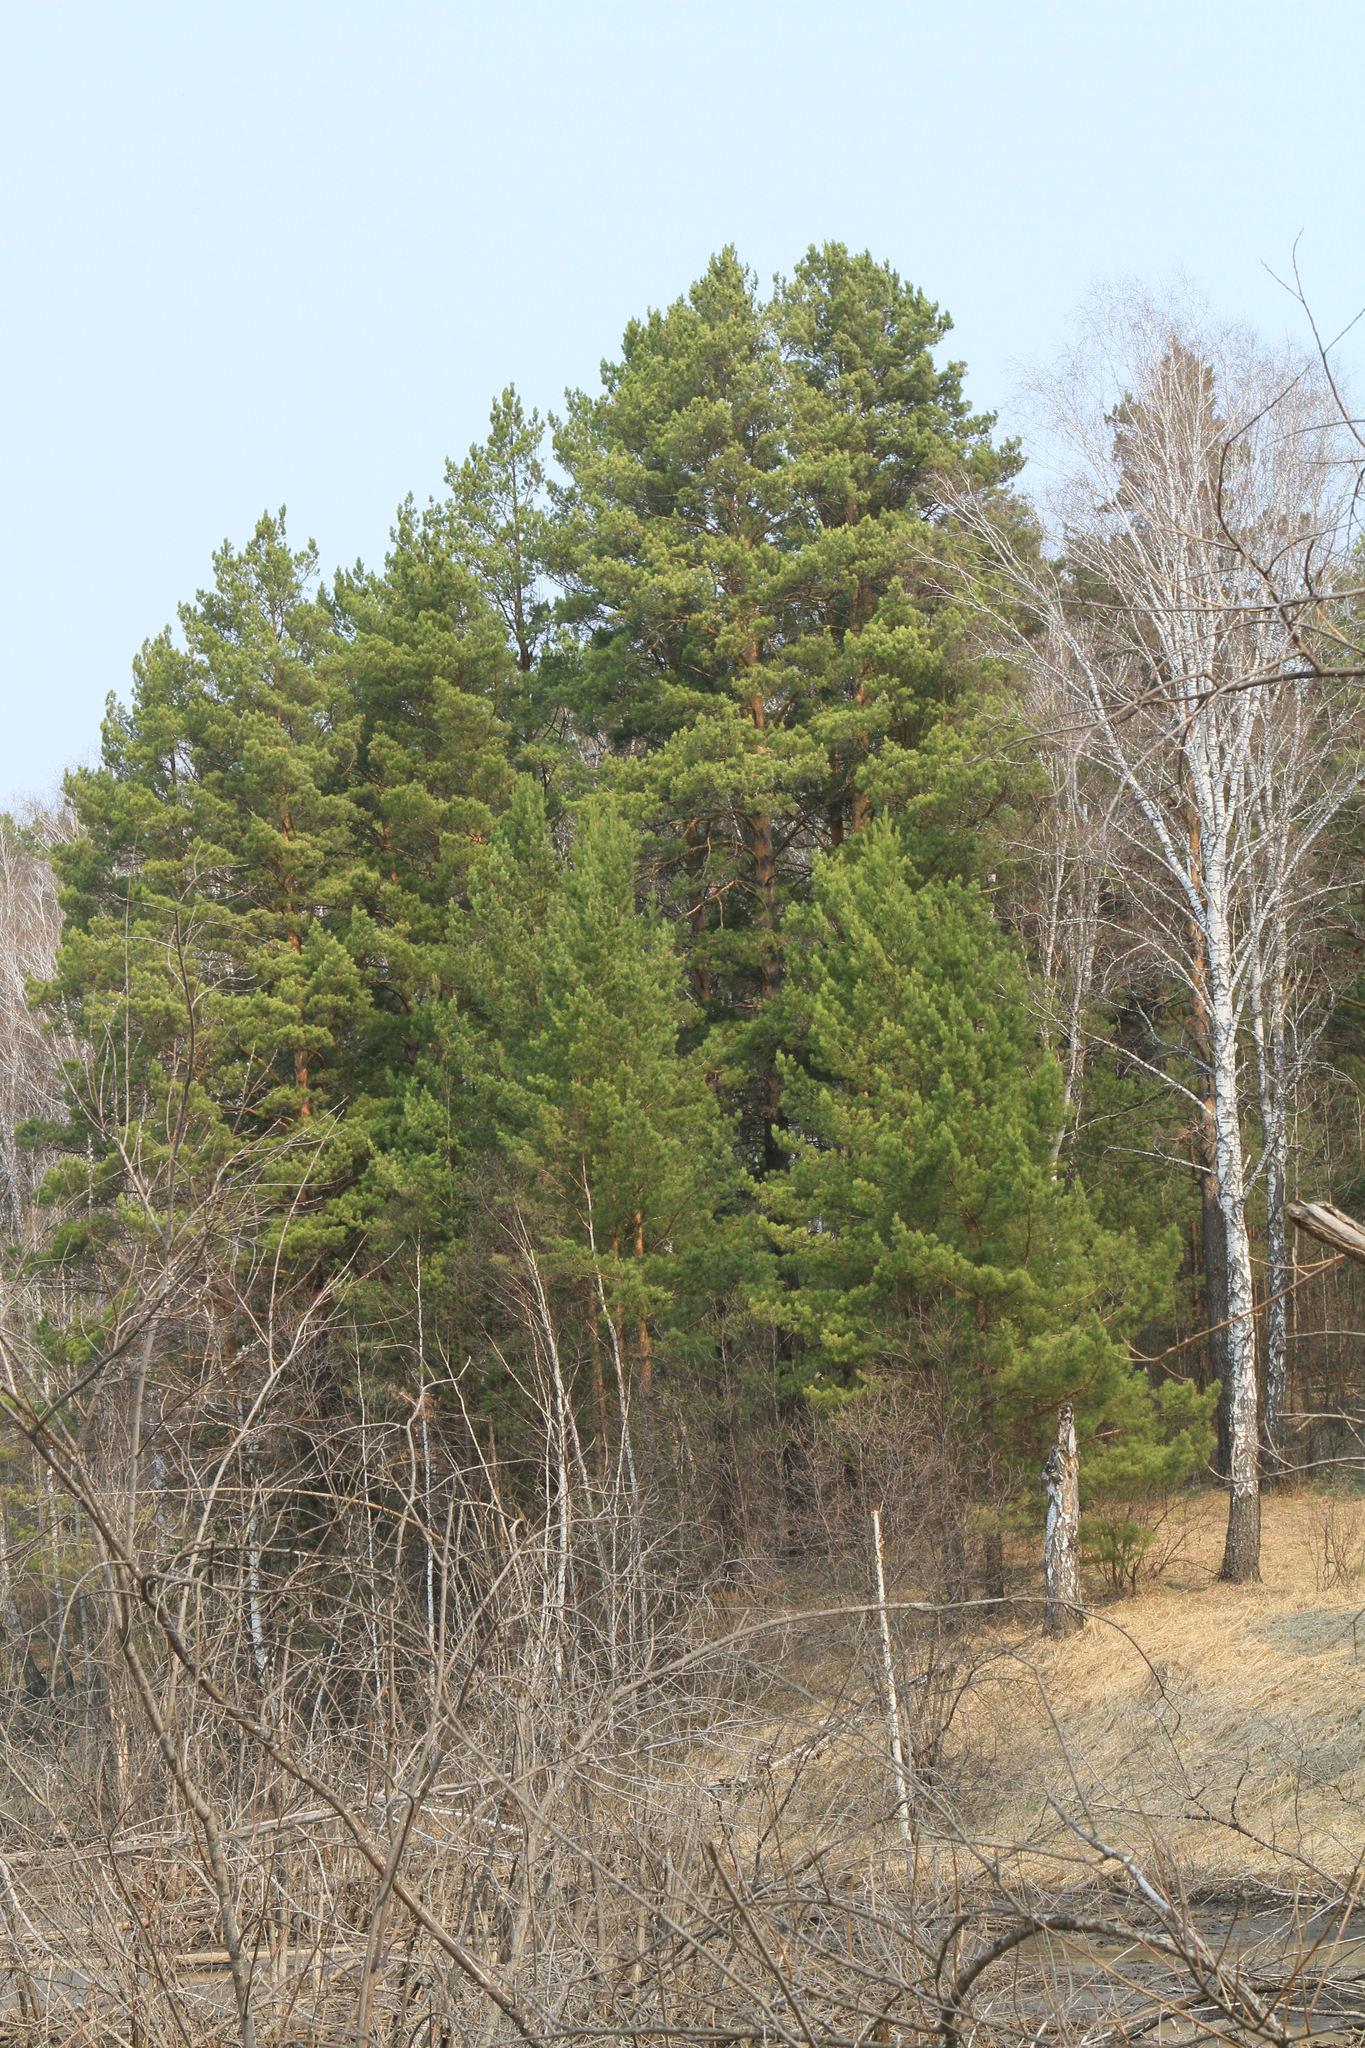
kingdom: Plantae
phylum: Tracheophyta
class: Pinopsida
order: Pinales
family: Pinaceae
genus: Pinus
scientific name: Pinus sylvestris
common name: Scots pine
